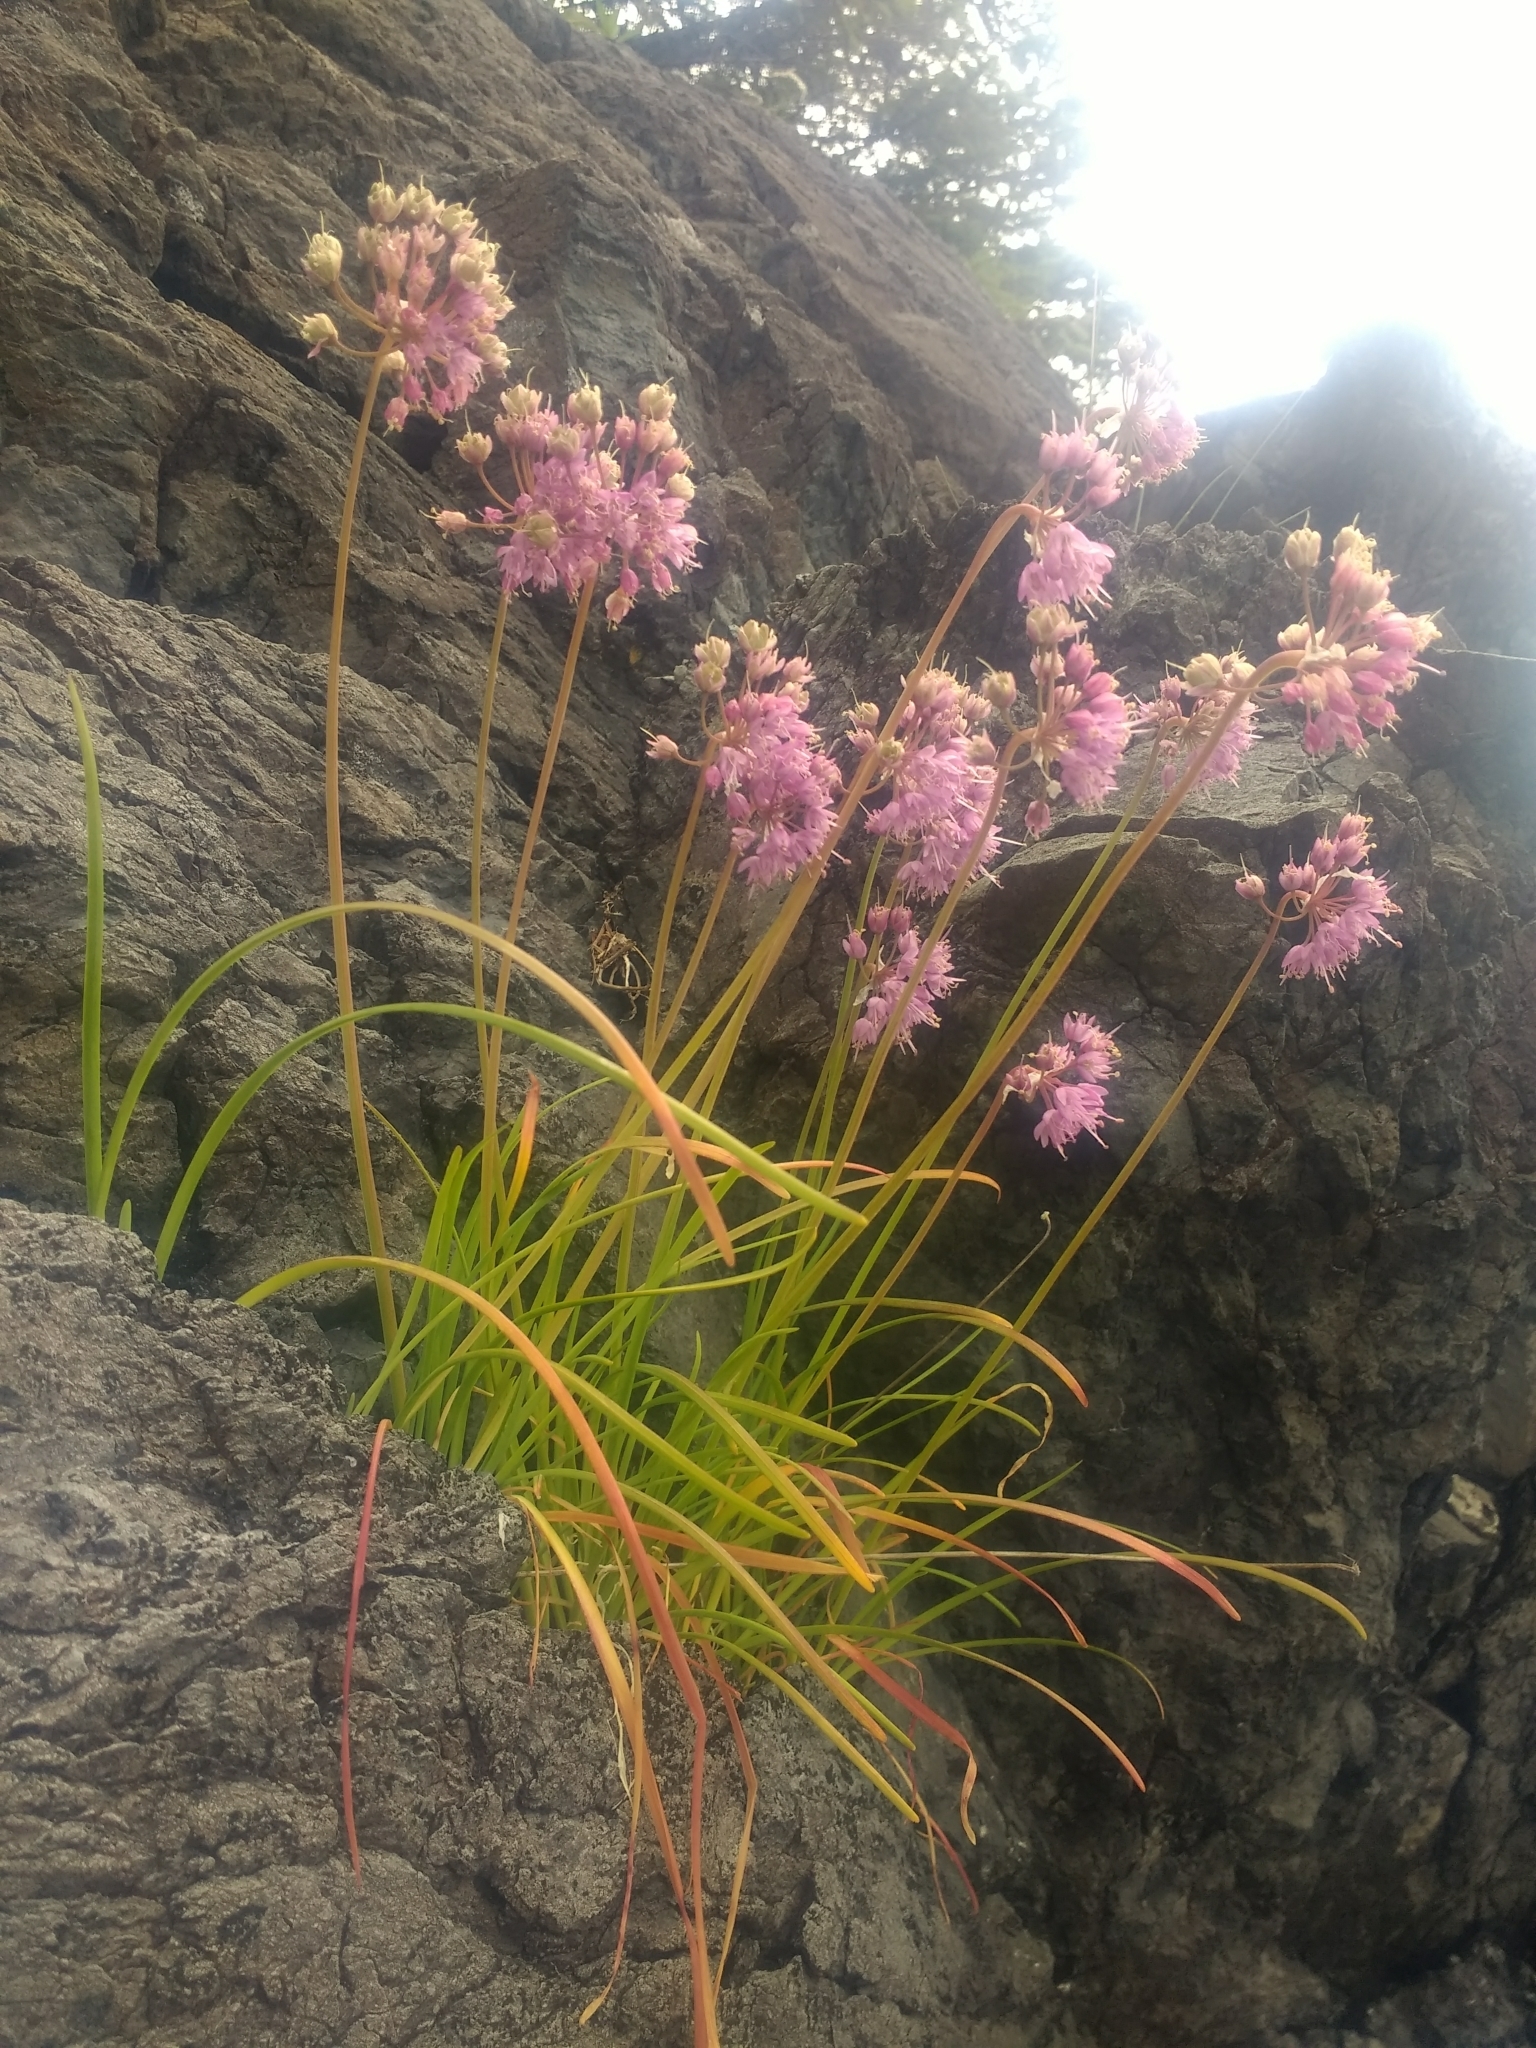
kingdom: Plantae
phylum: Tracheophyta
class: Liliopsida
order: Asparagales
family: Amaryllidaceae
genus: Allium
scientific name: Allium cernuum
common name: Nodding onion
